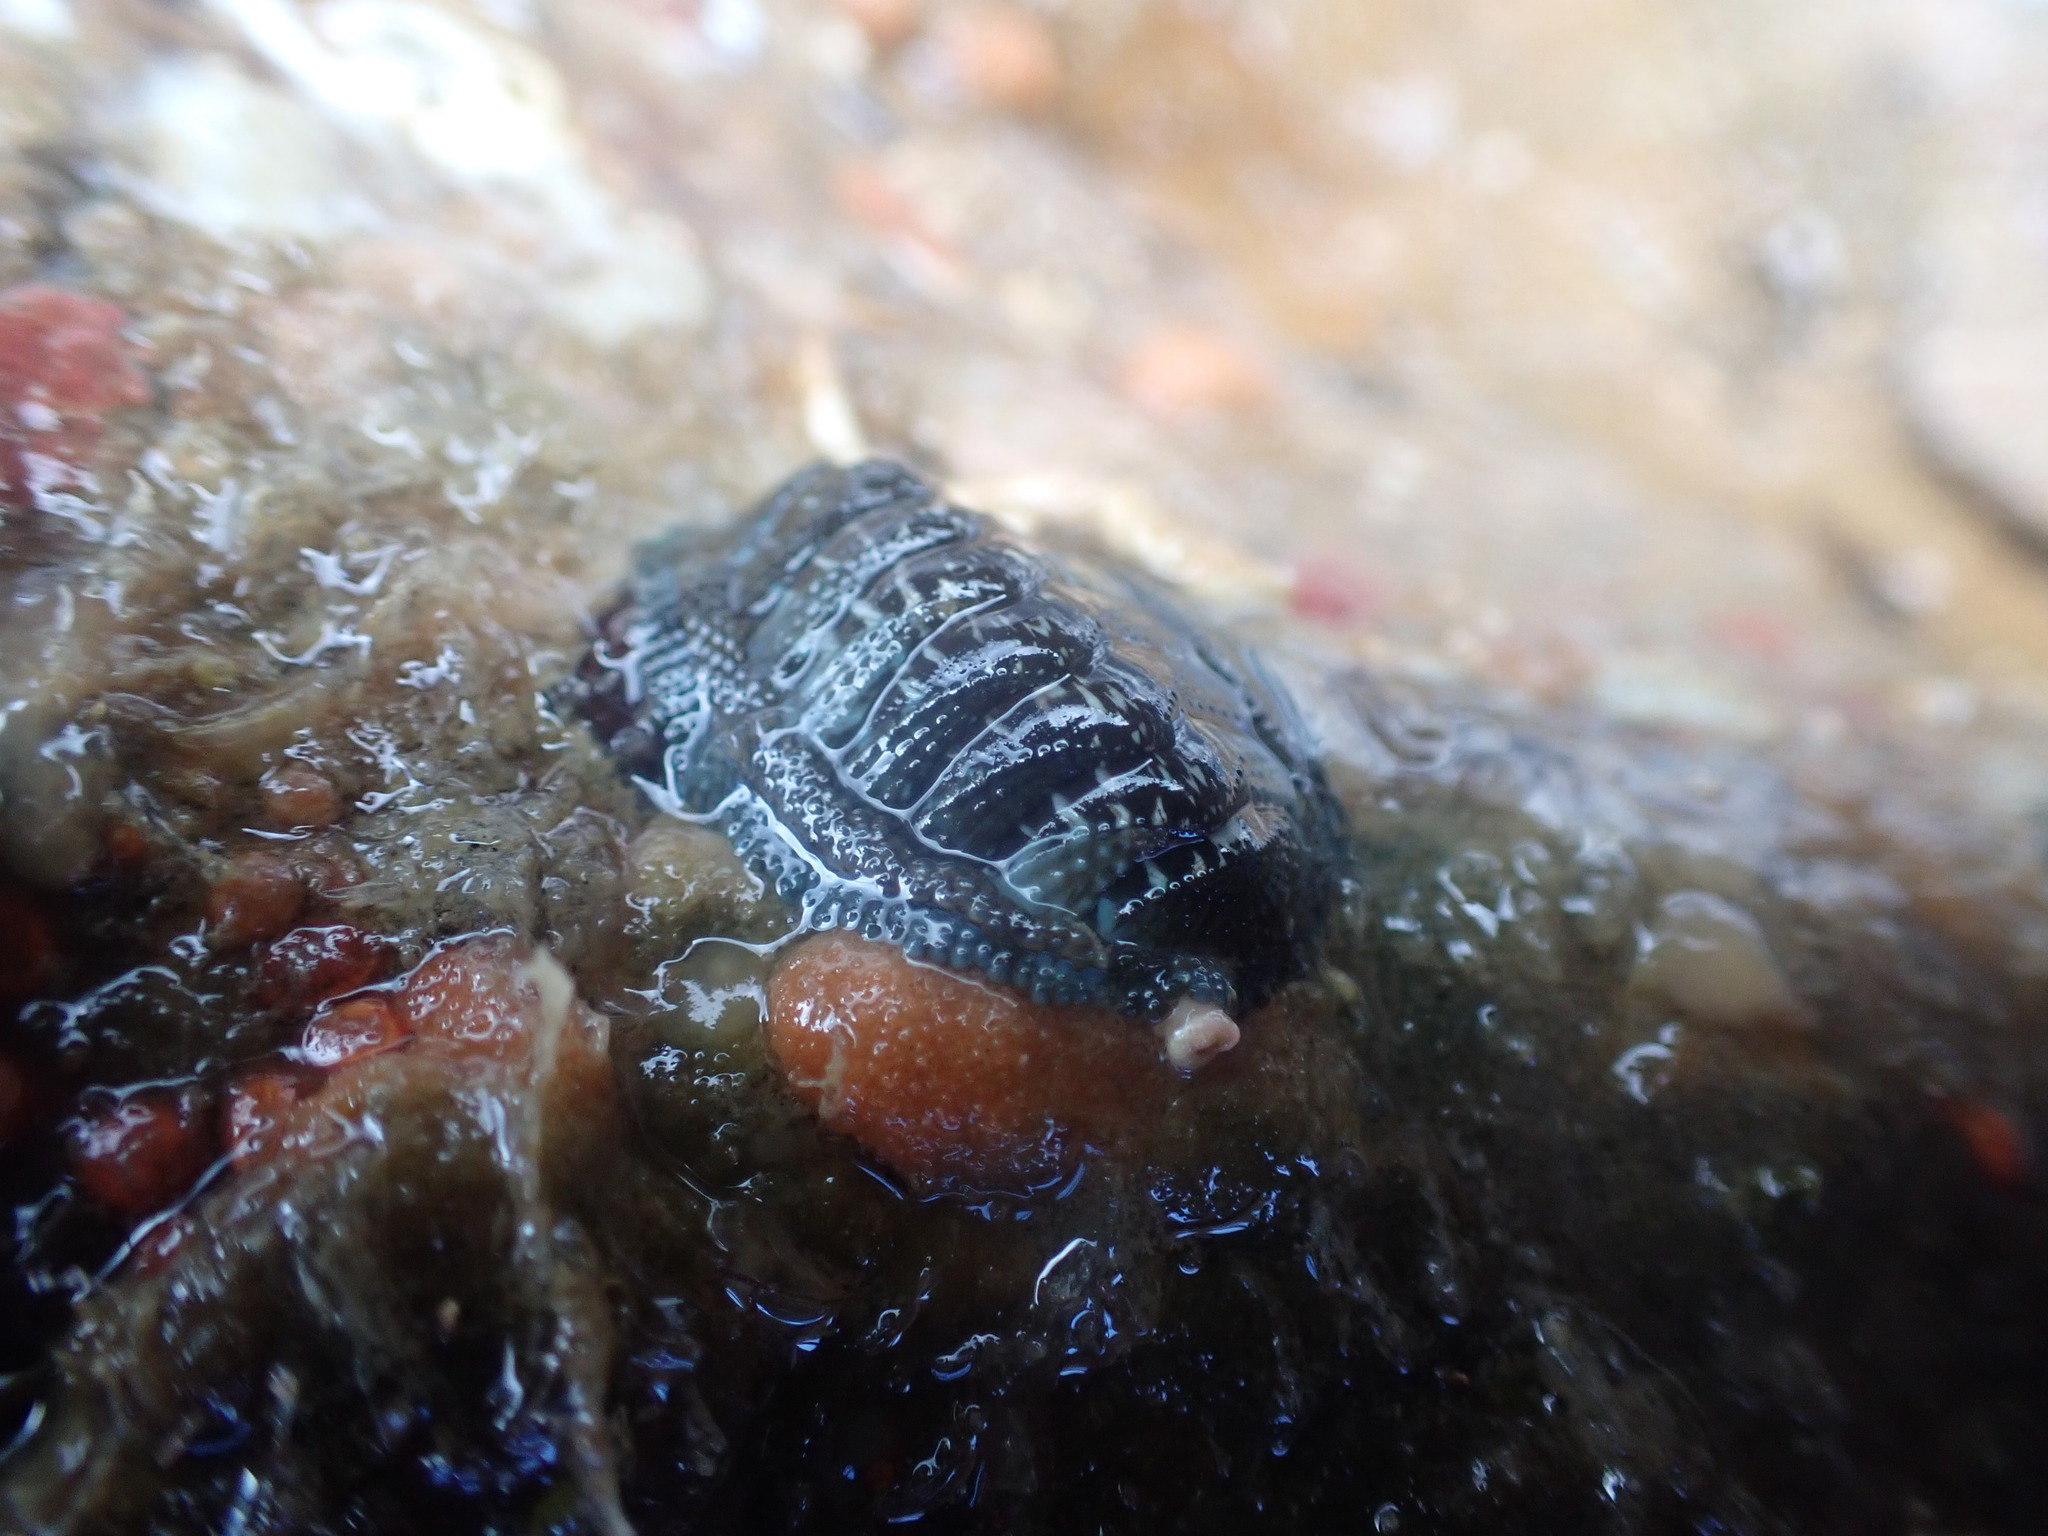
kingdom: Animalia
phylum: Mollusca
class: Polyplacophora
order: Chitonida
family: Chitonidae
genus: Sypharochiton
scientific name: Sypharochiton sinclairi
